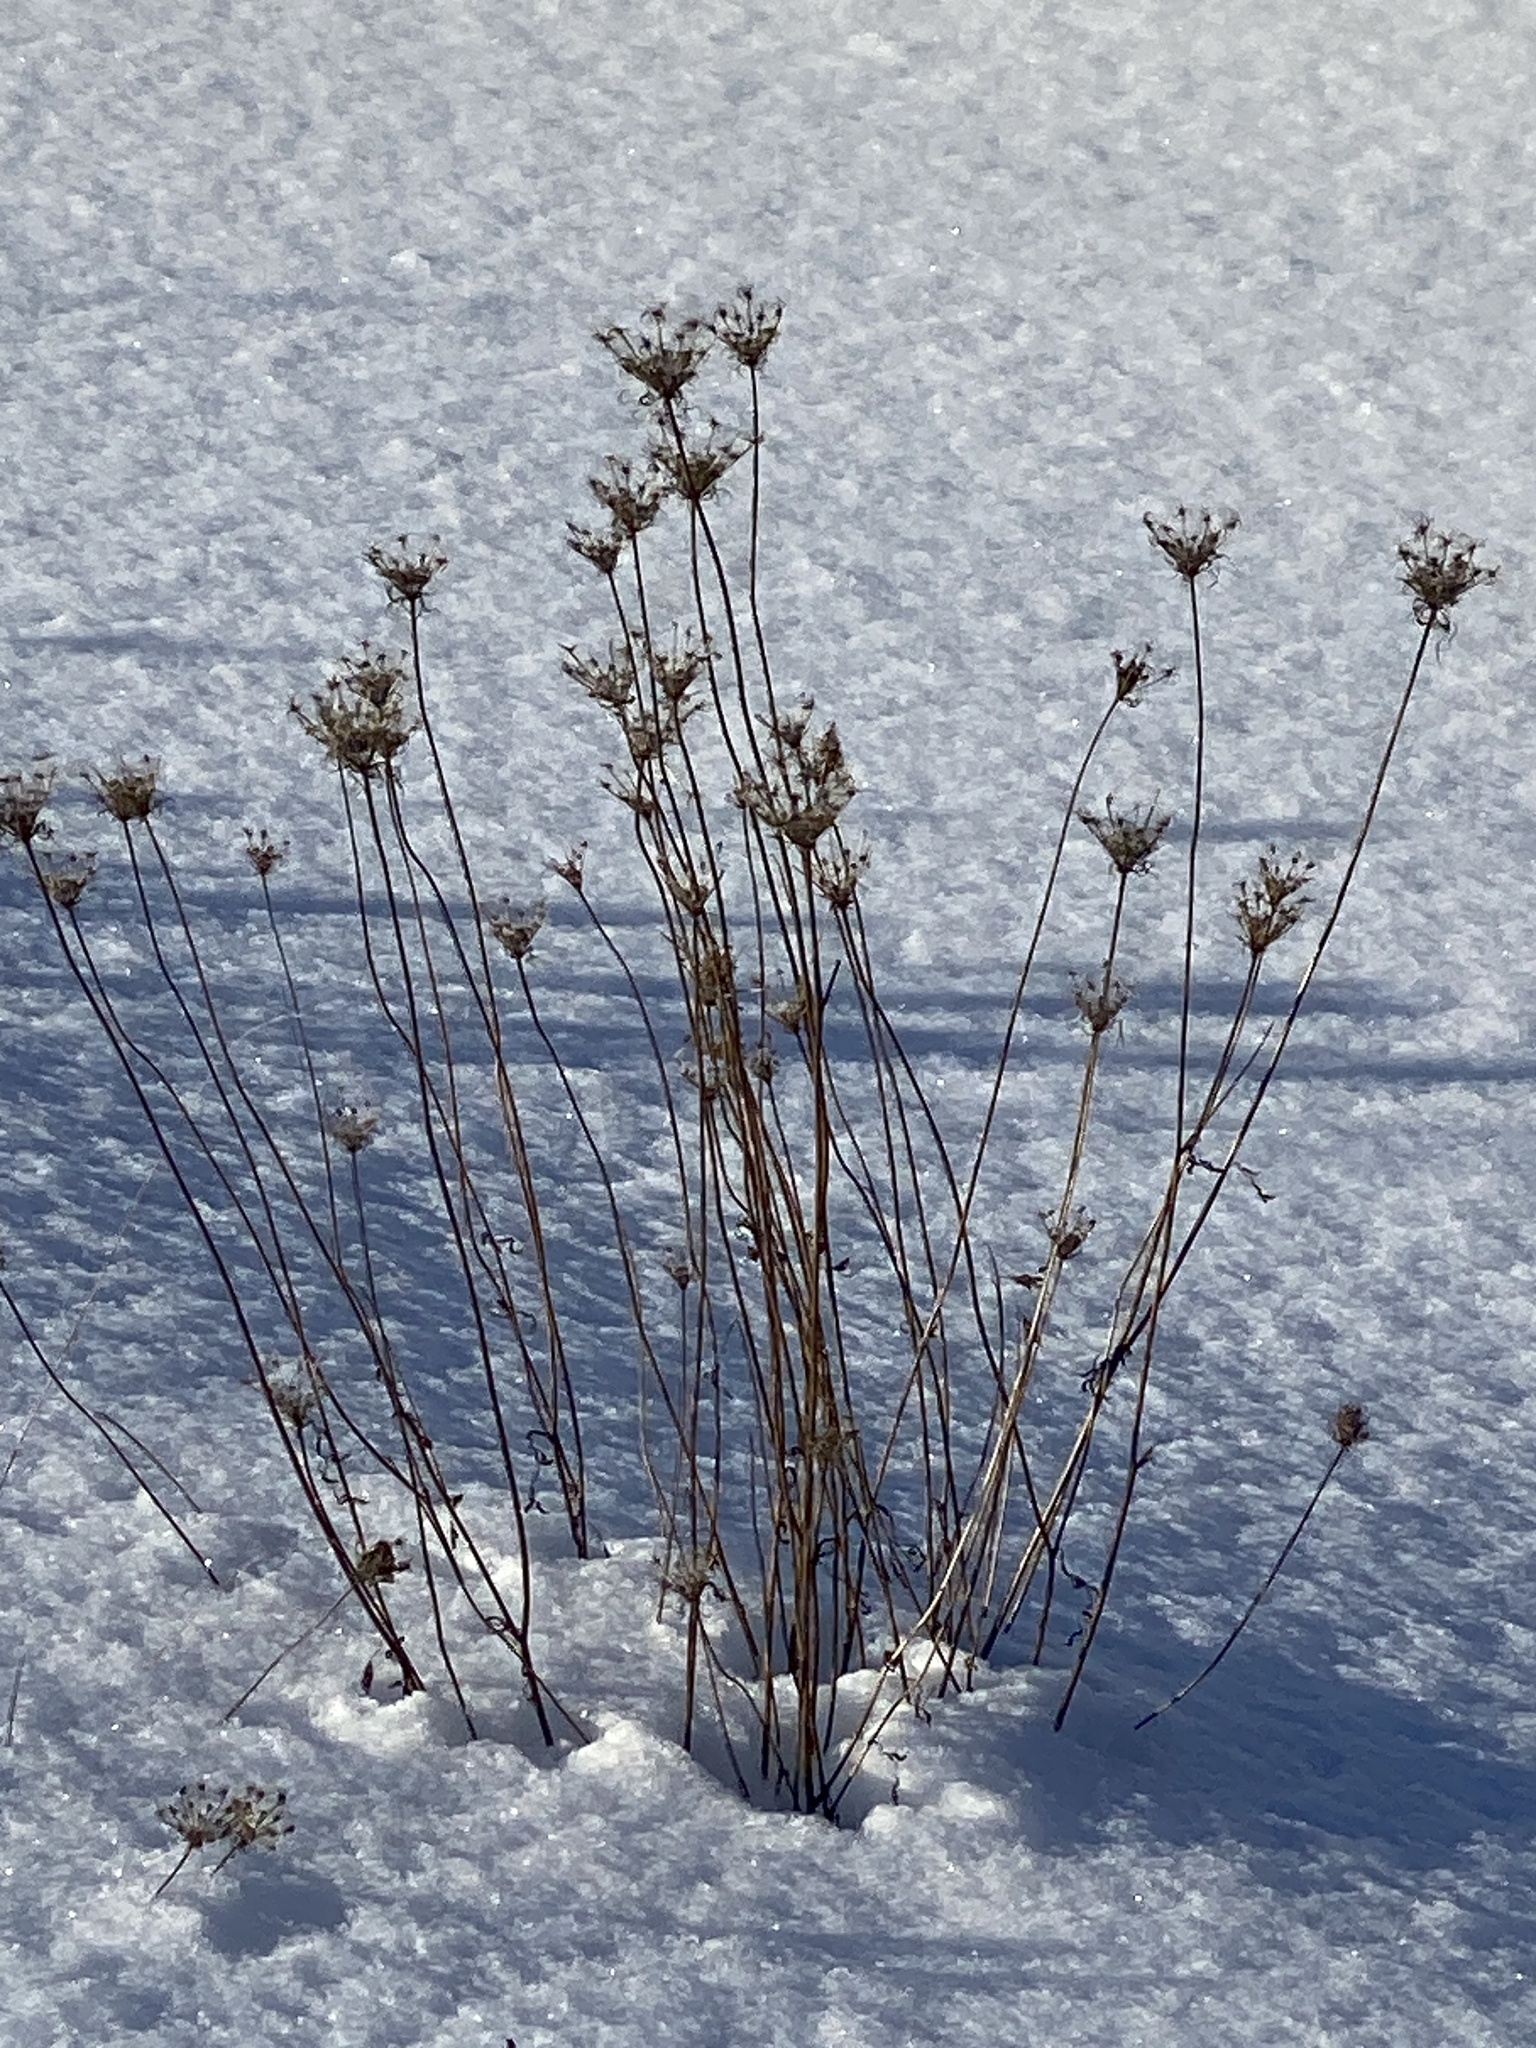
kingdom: Plantae
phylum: Tracheophyta
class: Magnoliopsida
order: Apiales
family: Apiaceae
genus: Daucus
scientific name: Daucus carota
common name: Wild carrot
